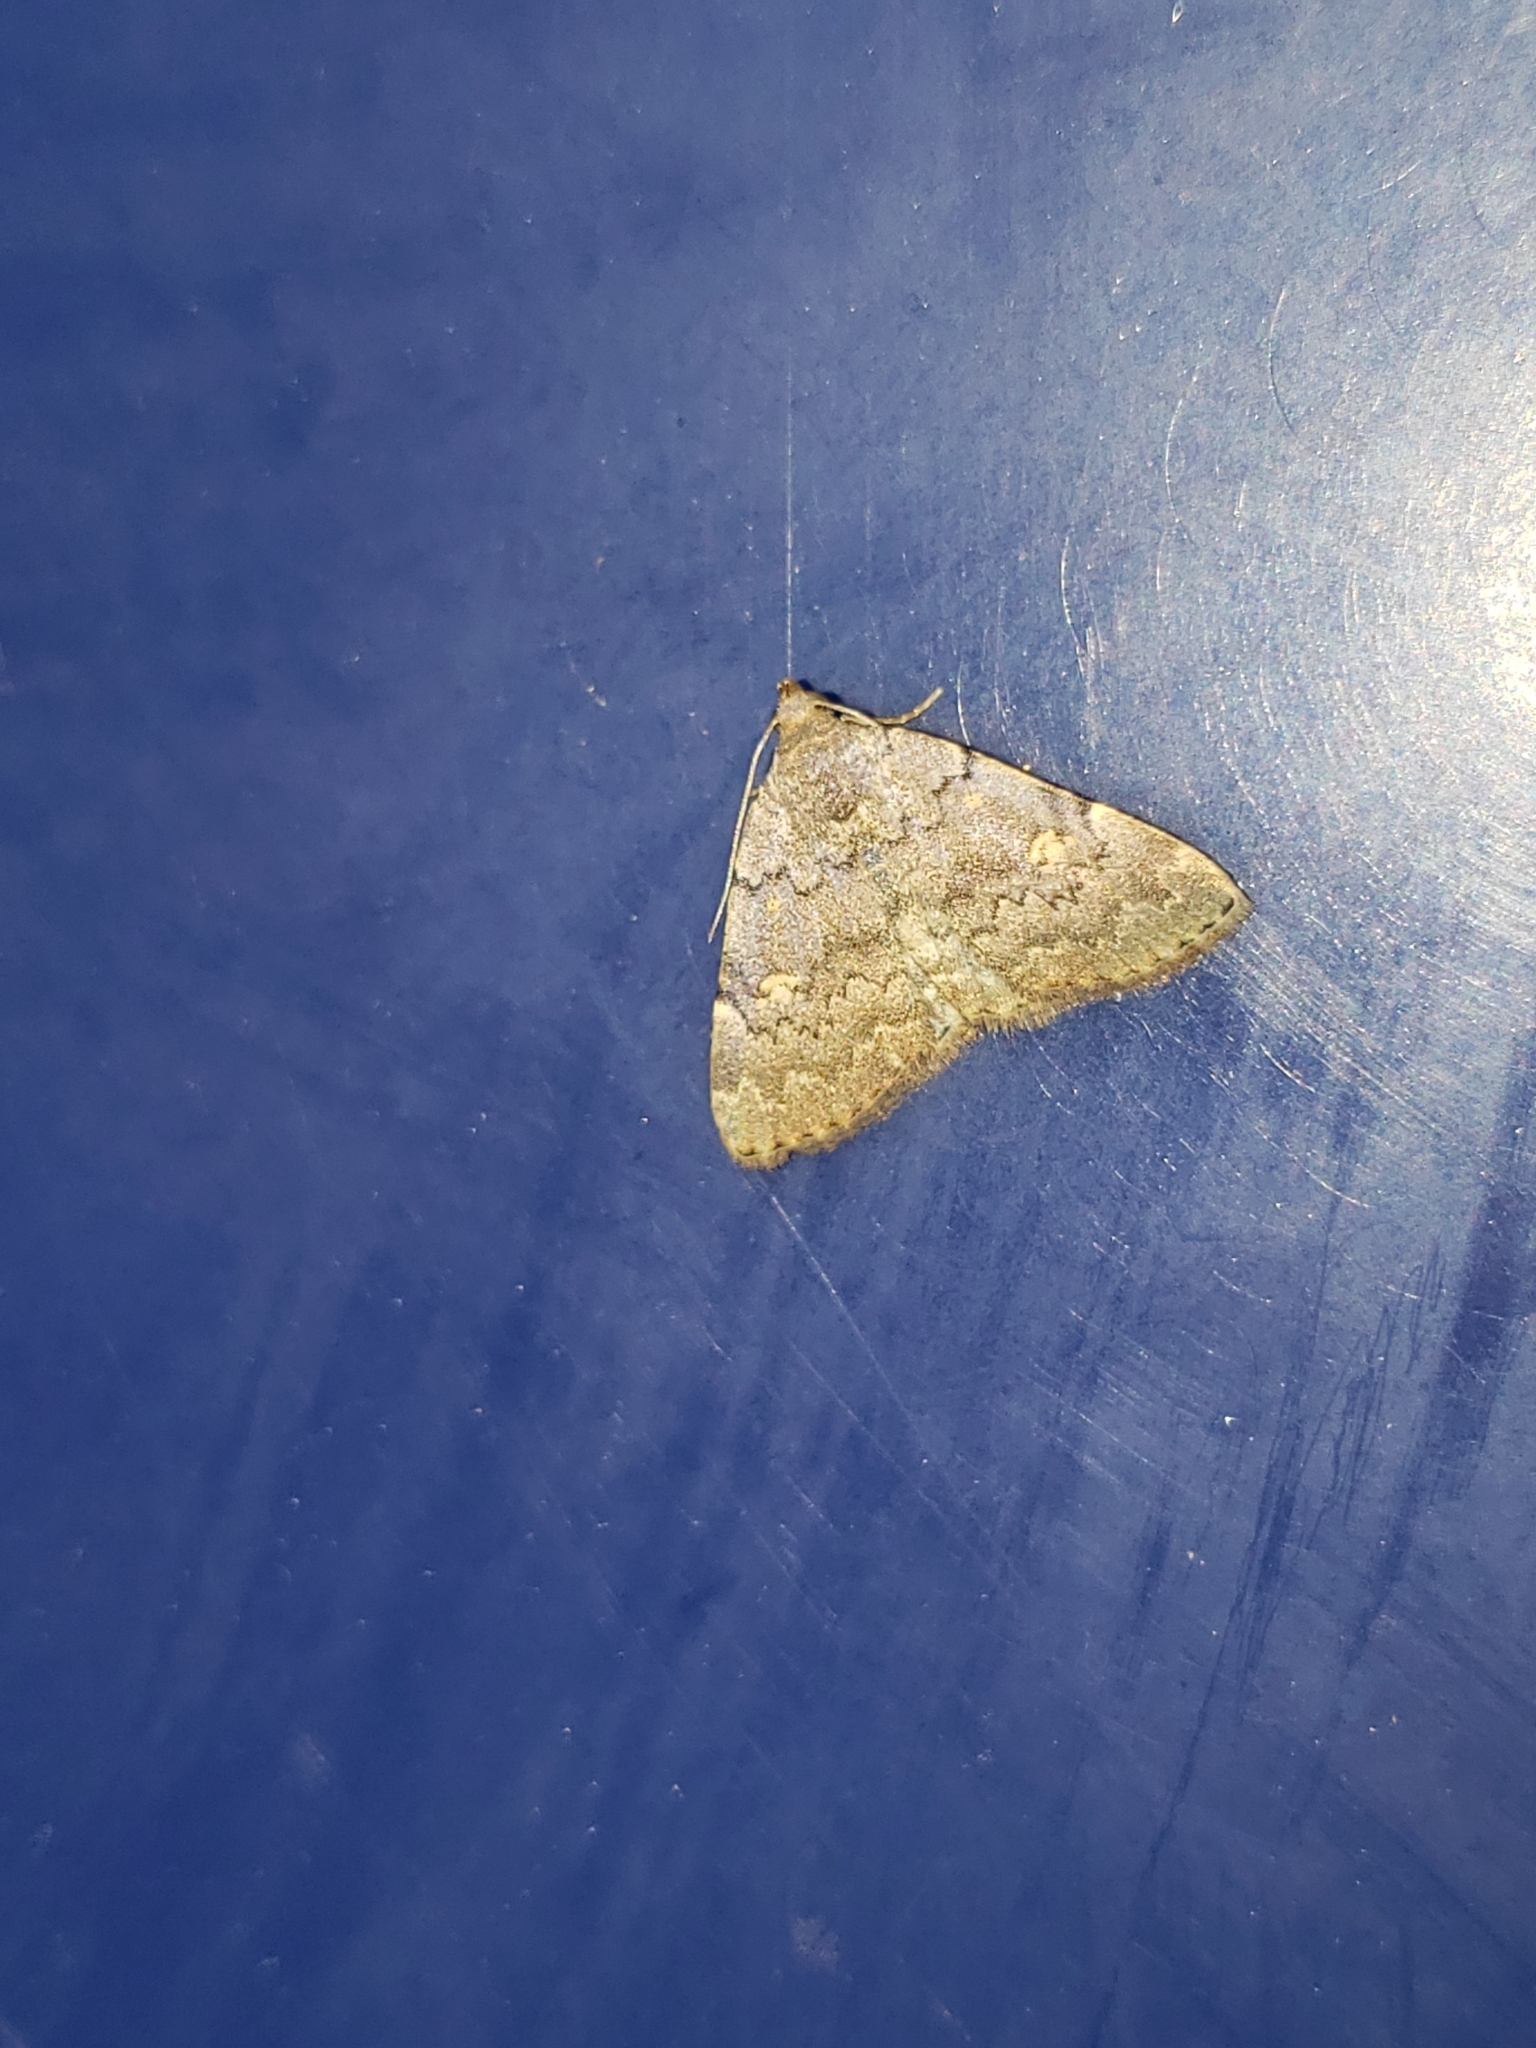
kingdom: Animalia
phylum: Arthropoda
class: Insecta
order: Lepidoptera
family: Erebidae
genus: Idia
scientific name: Idia aemula
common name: Common idia moth
